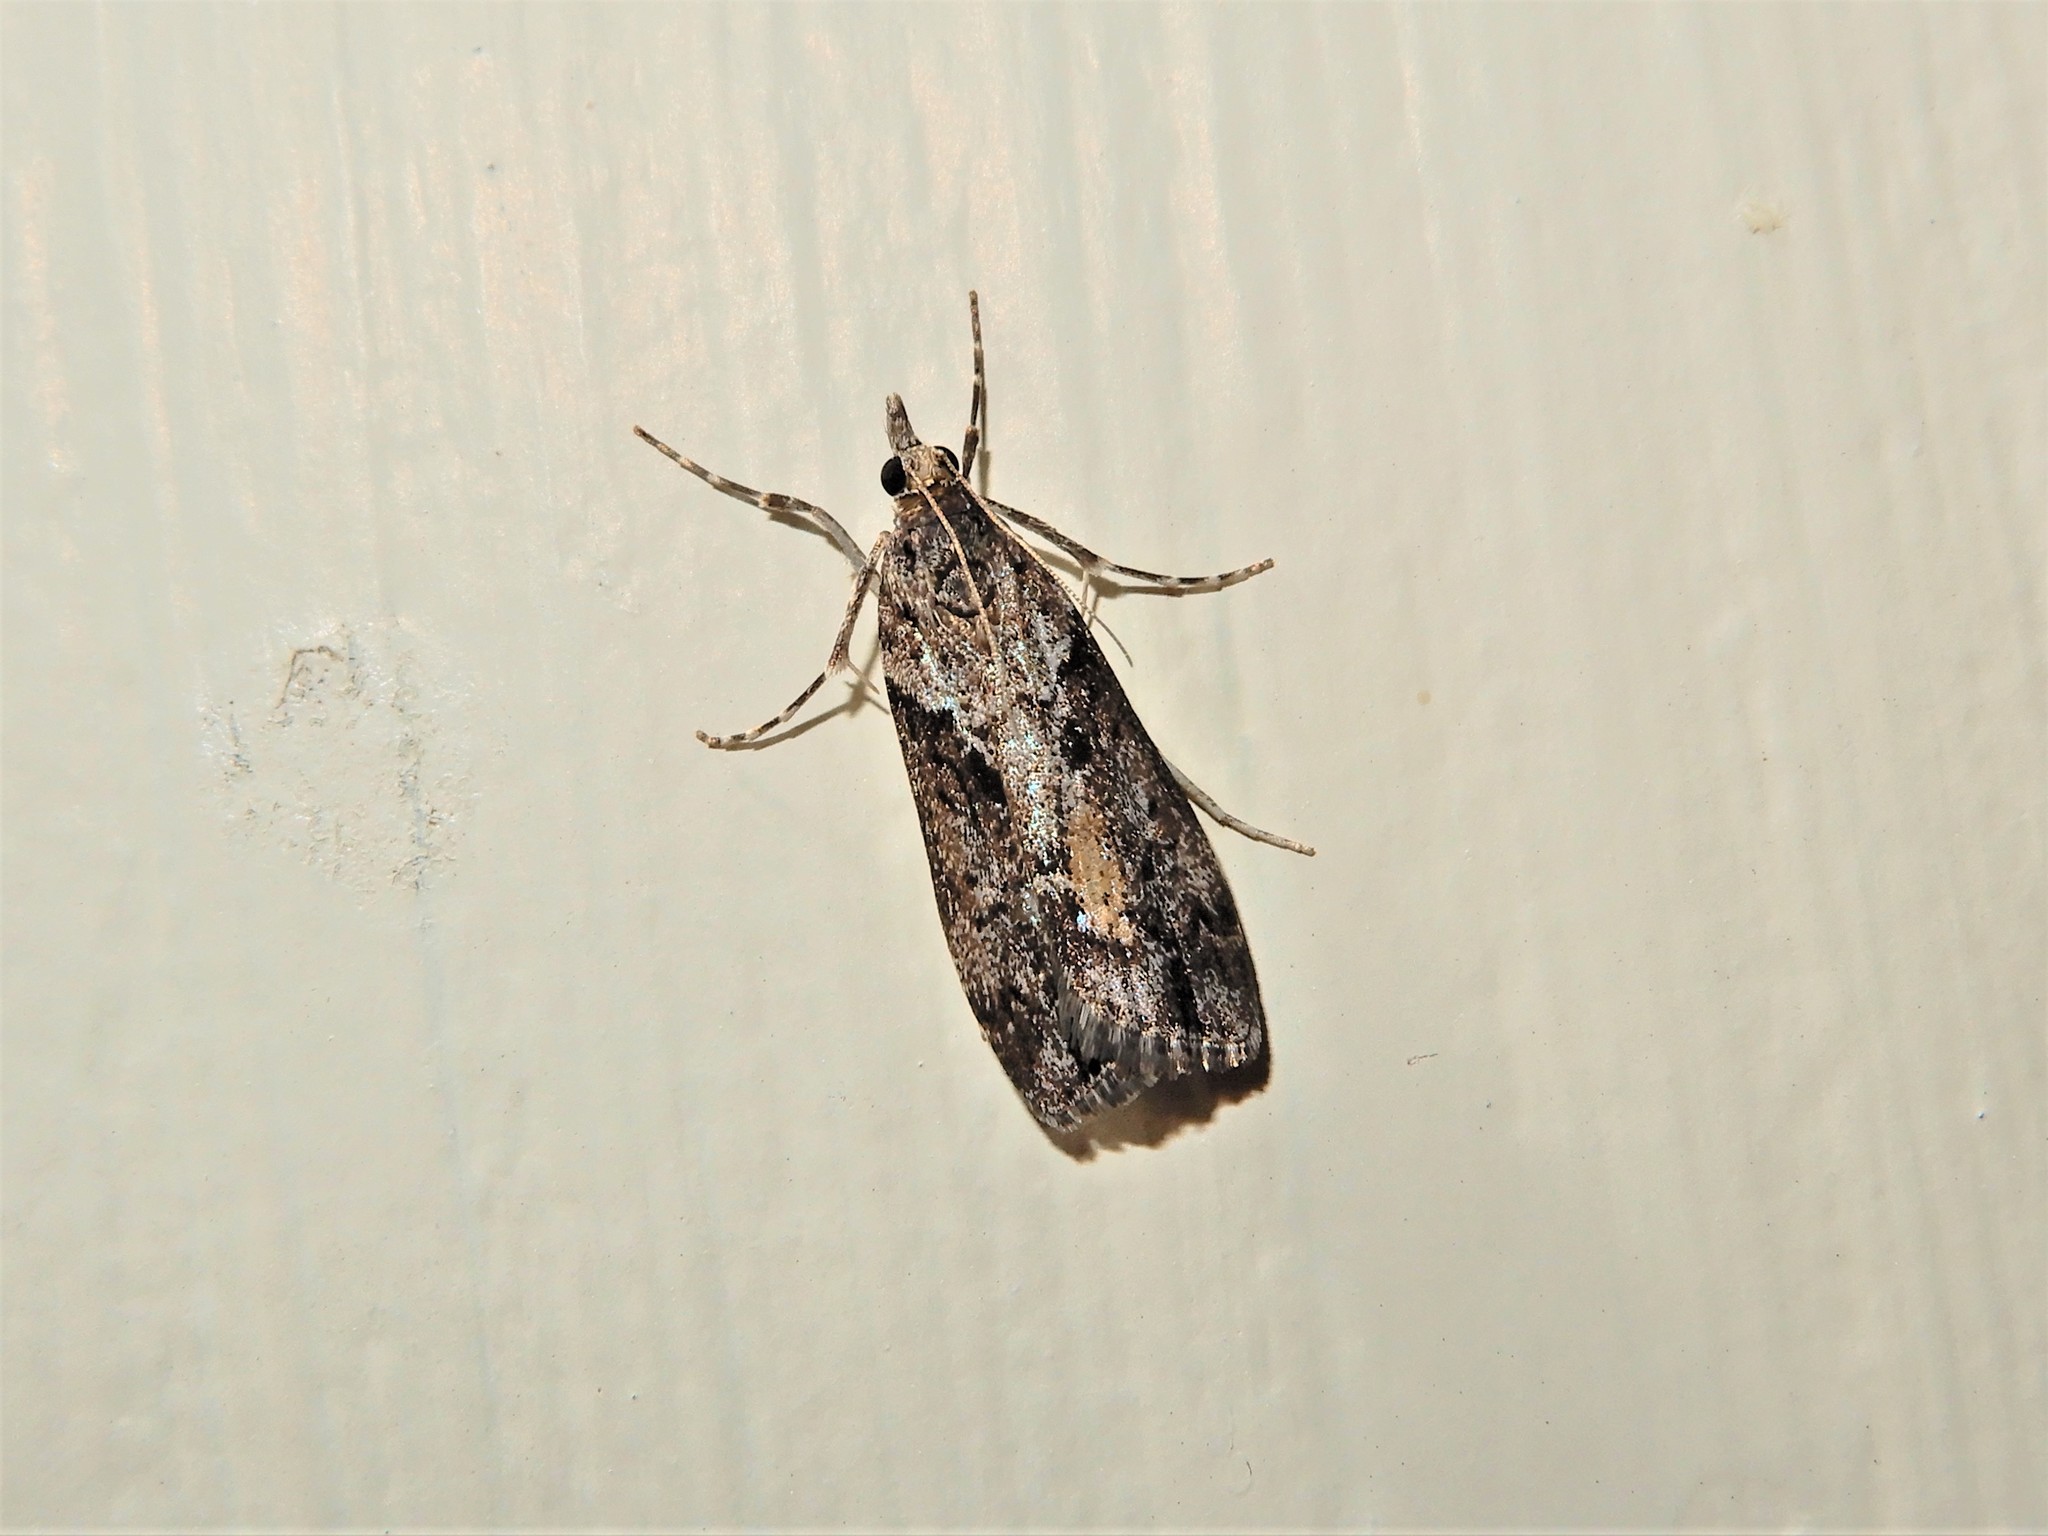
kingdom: Animalia
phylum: Arthropoda
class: Insecta
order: Lepidoptera
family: Crambidae
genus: Eudonia
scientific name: Eudonia submarginalis
